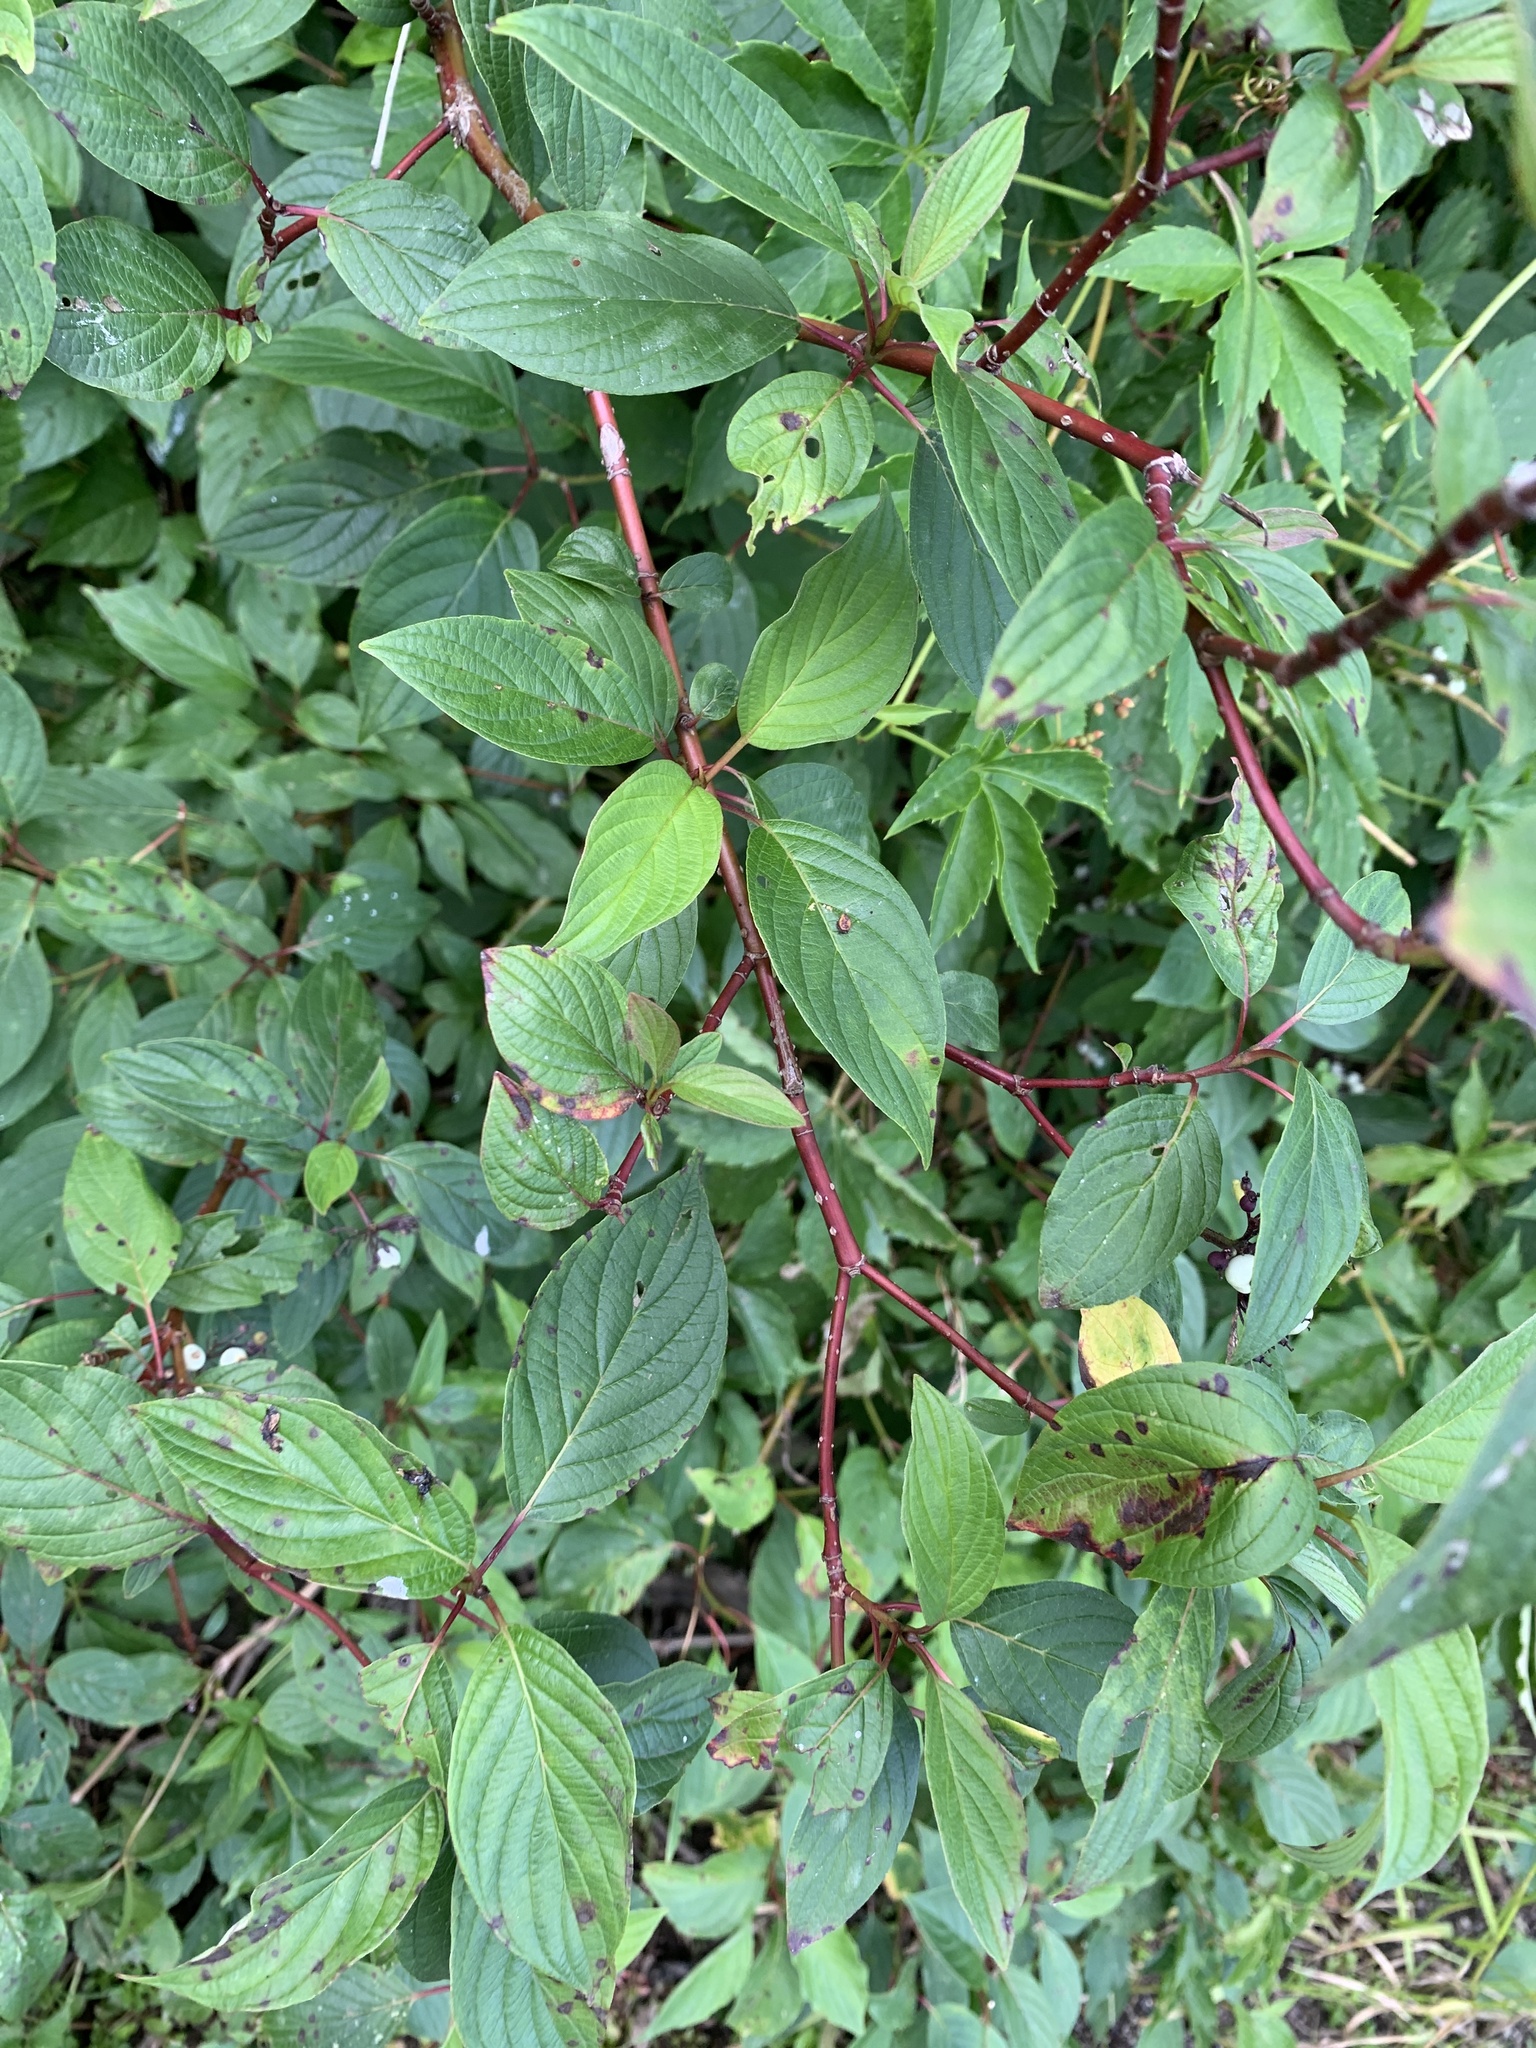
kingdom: Plantae
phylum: Tracheophyta
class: Magnoliopsida
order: Cornales
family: Cornaceae
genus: Cornus
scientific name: Cornus sericea
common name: Red-osier dogwood
